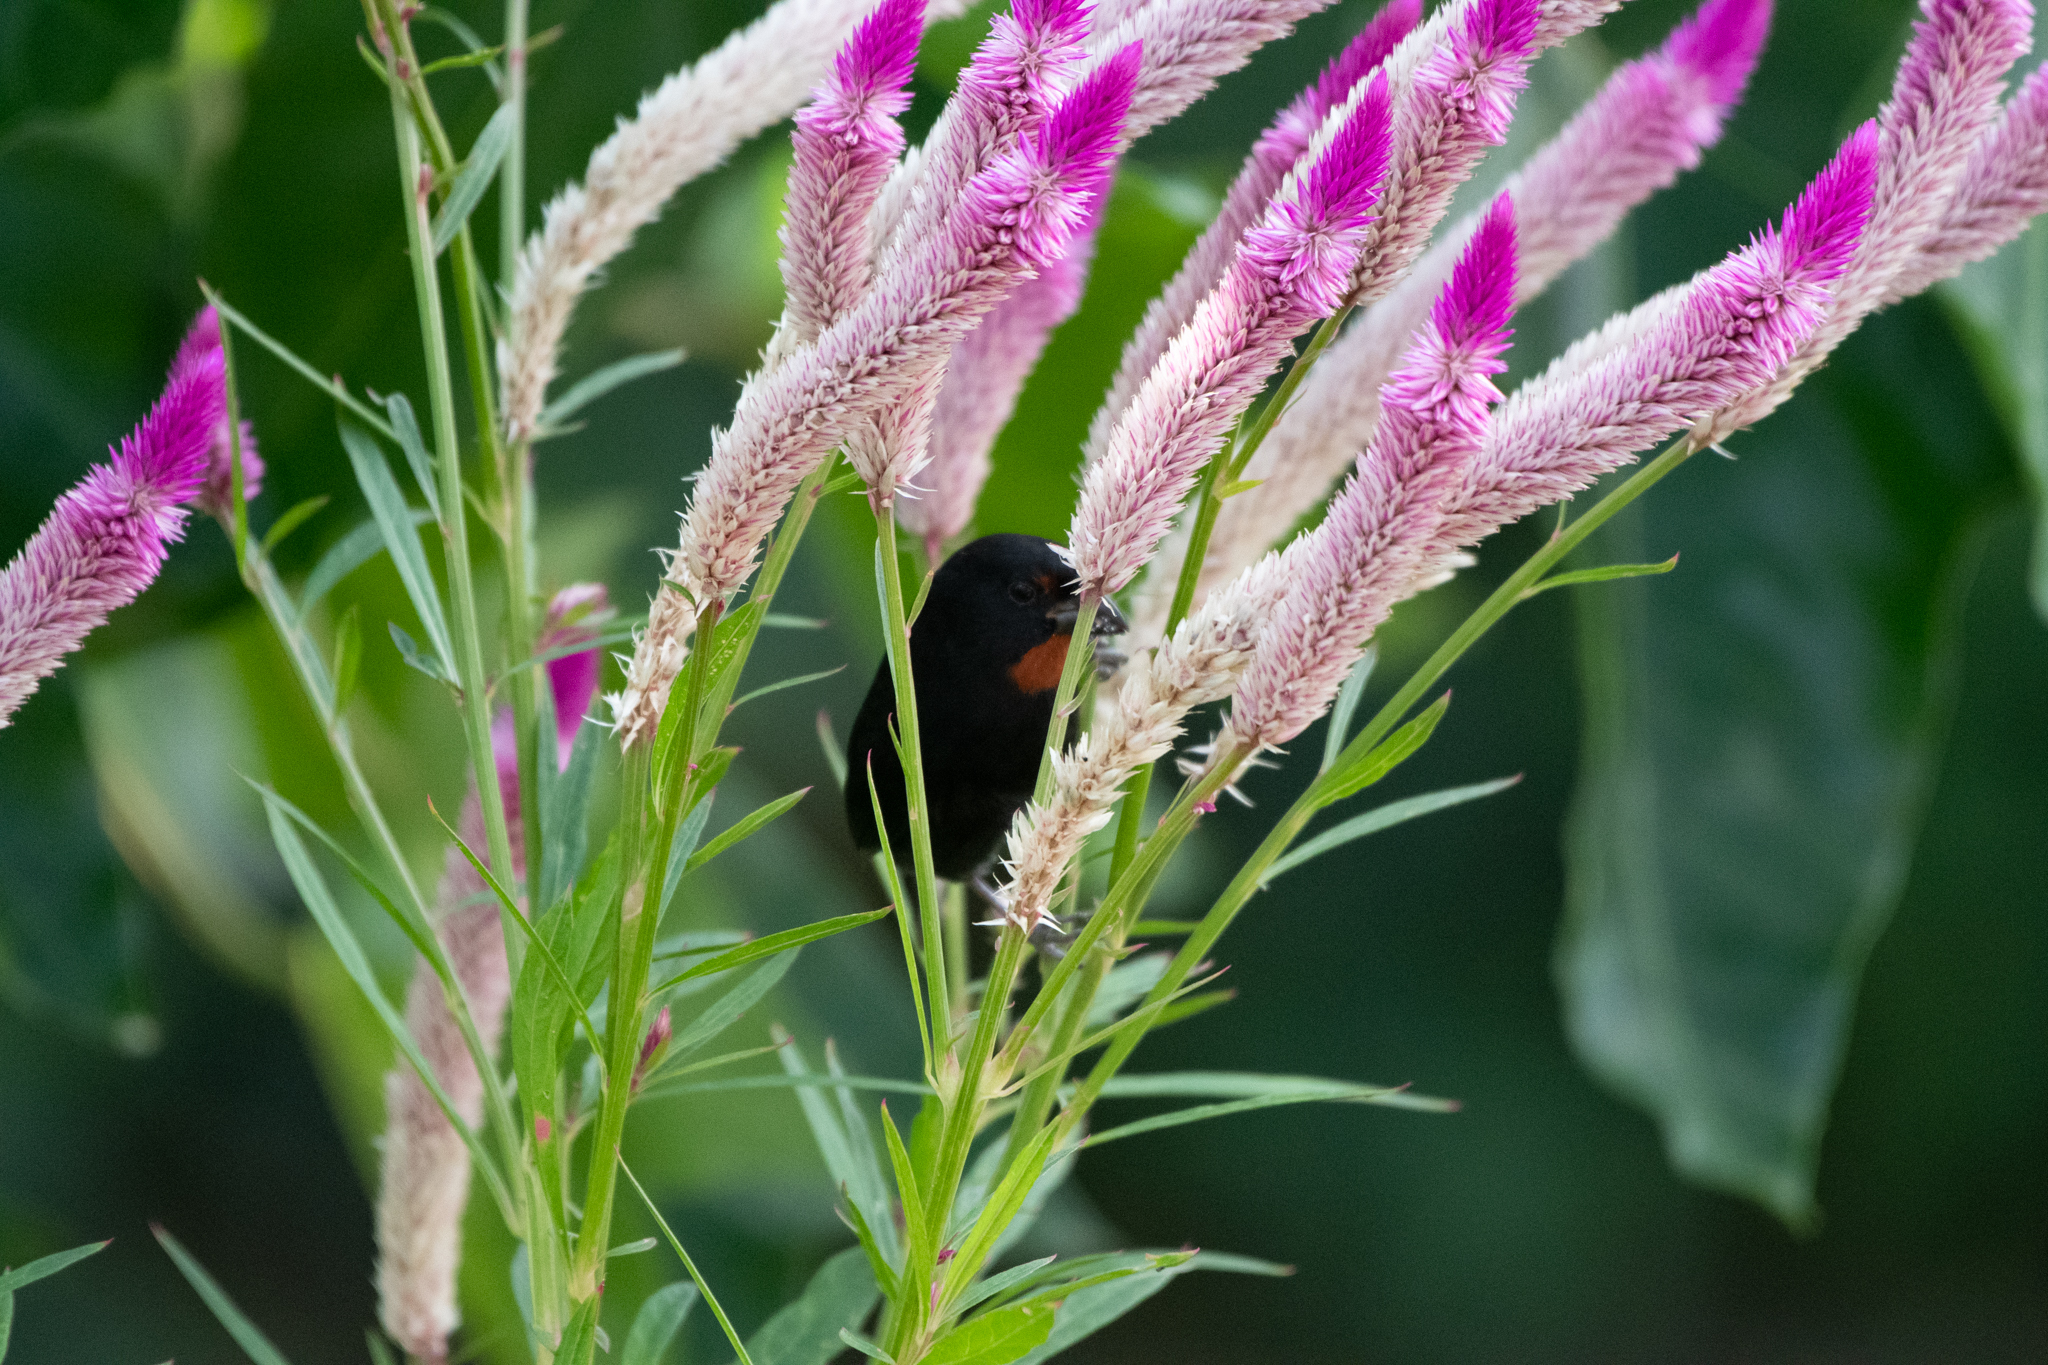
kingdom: Animalia
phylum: Chordata
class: Aves
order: Passeriformes
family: Thraupidae
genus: Loxigilla
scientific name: Loxigilla noctis
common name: Lesser antillean bullfinch
